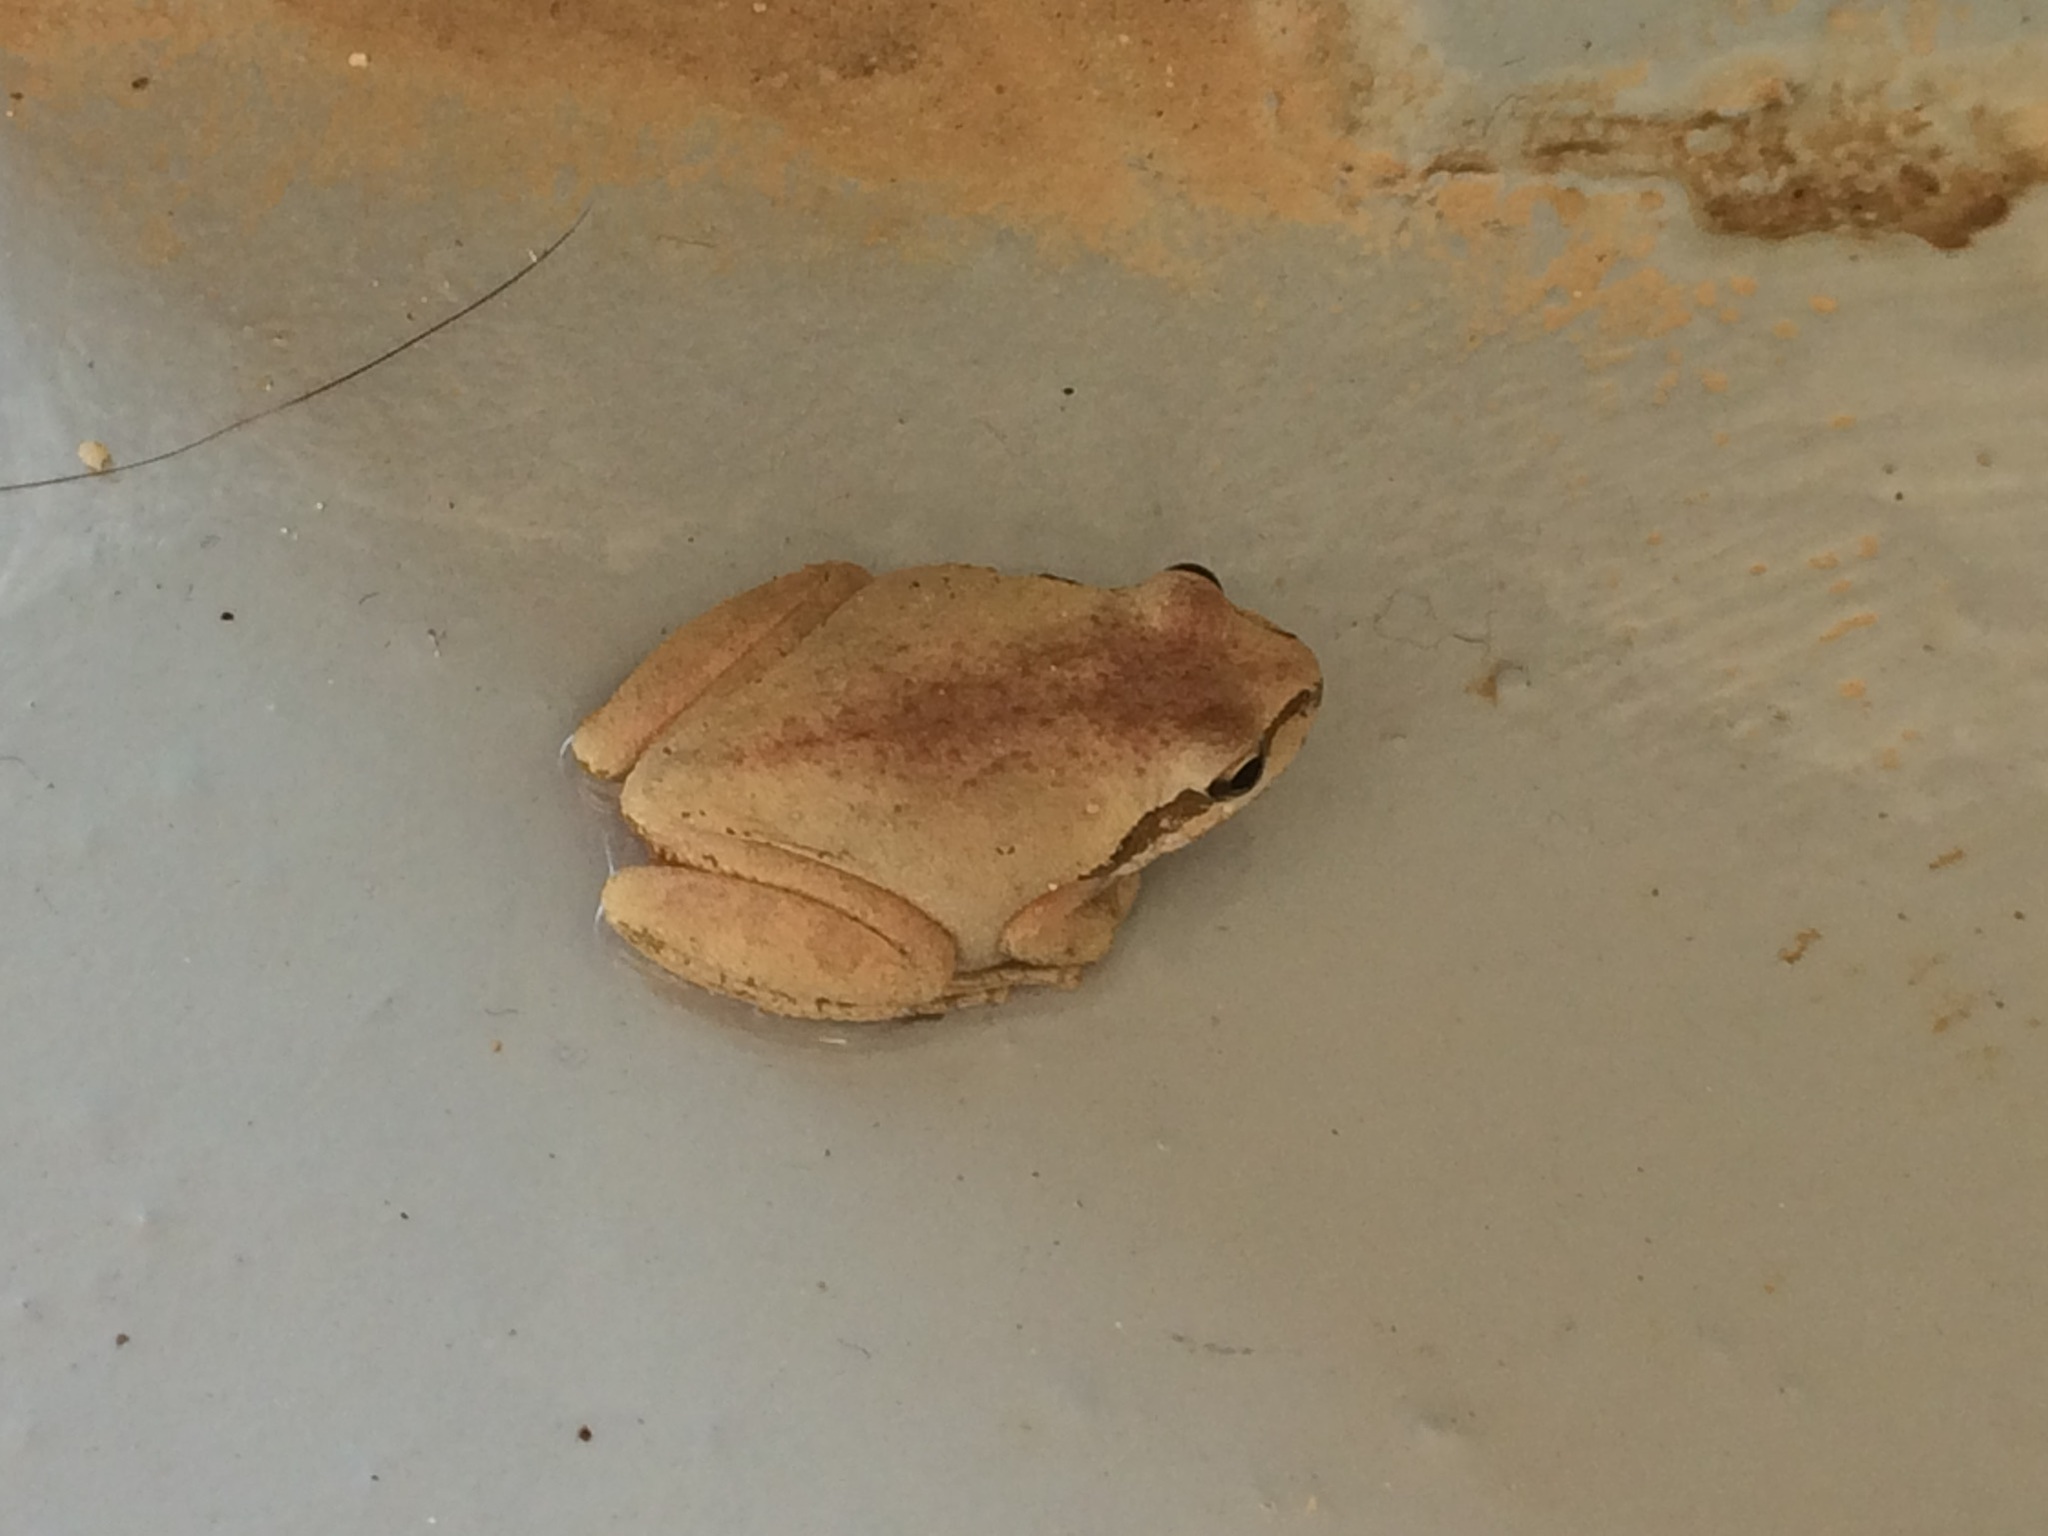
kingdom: Animalia
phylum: Chordata
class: Amphibia
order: Anura
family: Hylidae
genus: Pseudacris
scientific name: Pseudacris regilla
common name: Pacific chorus frog
